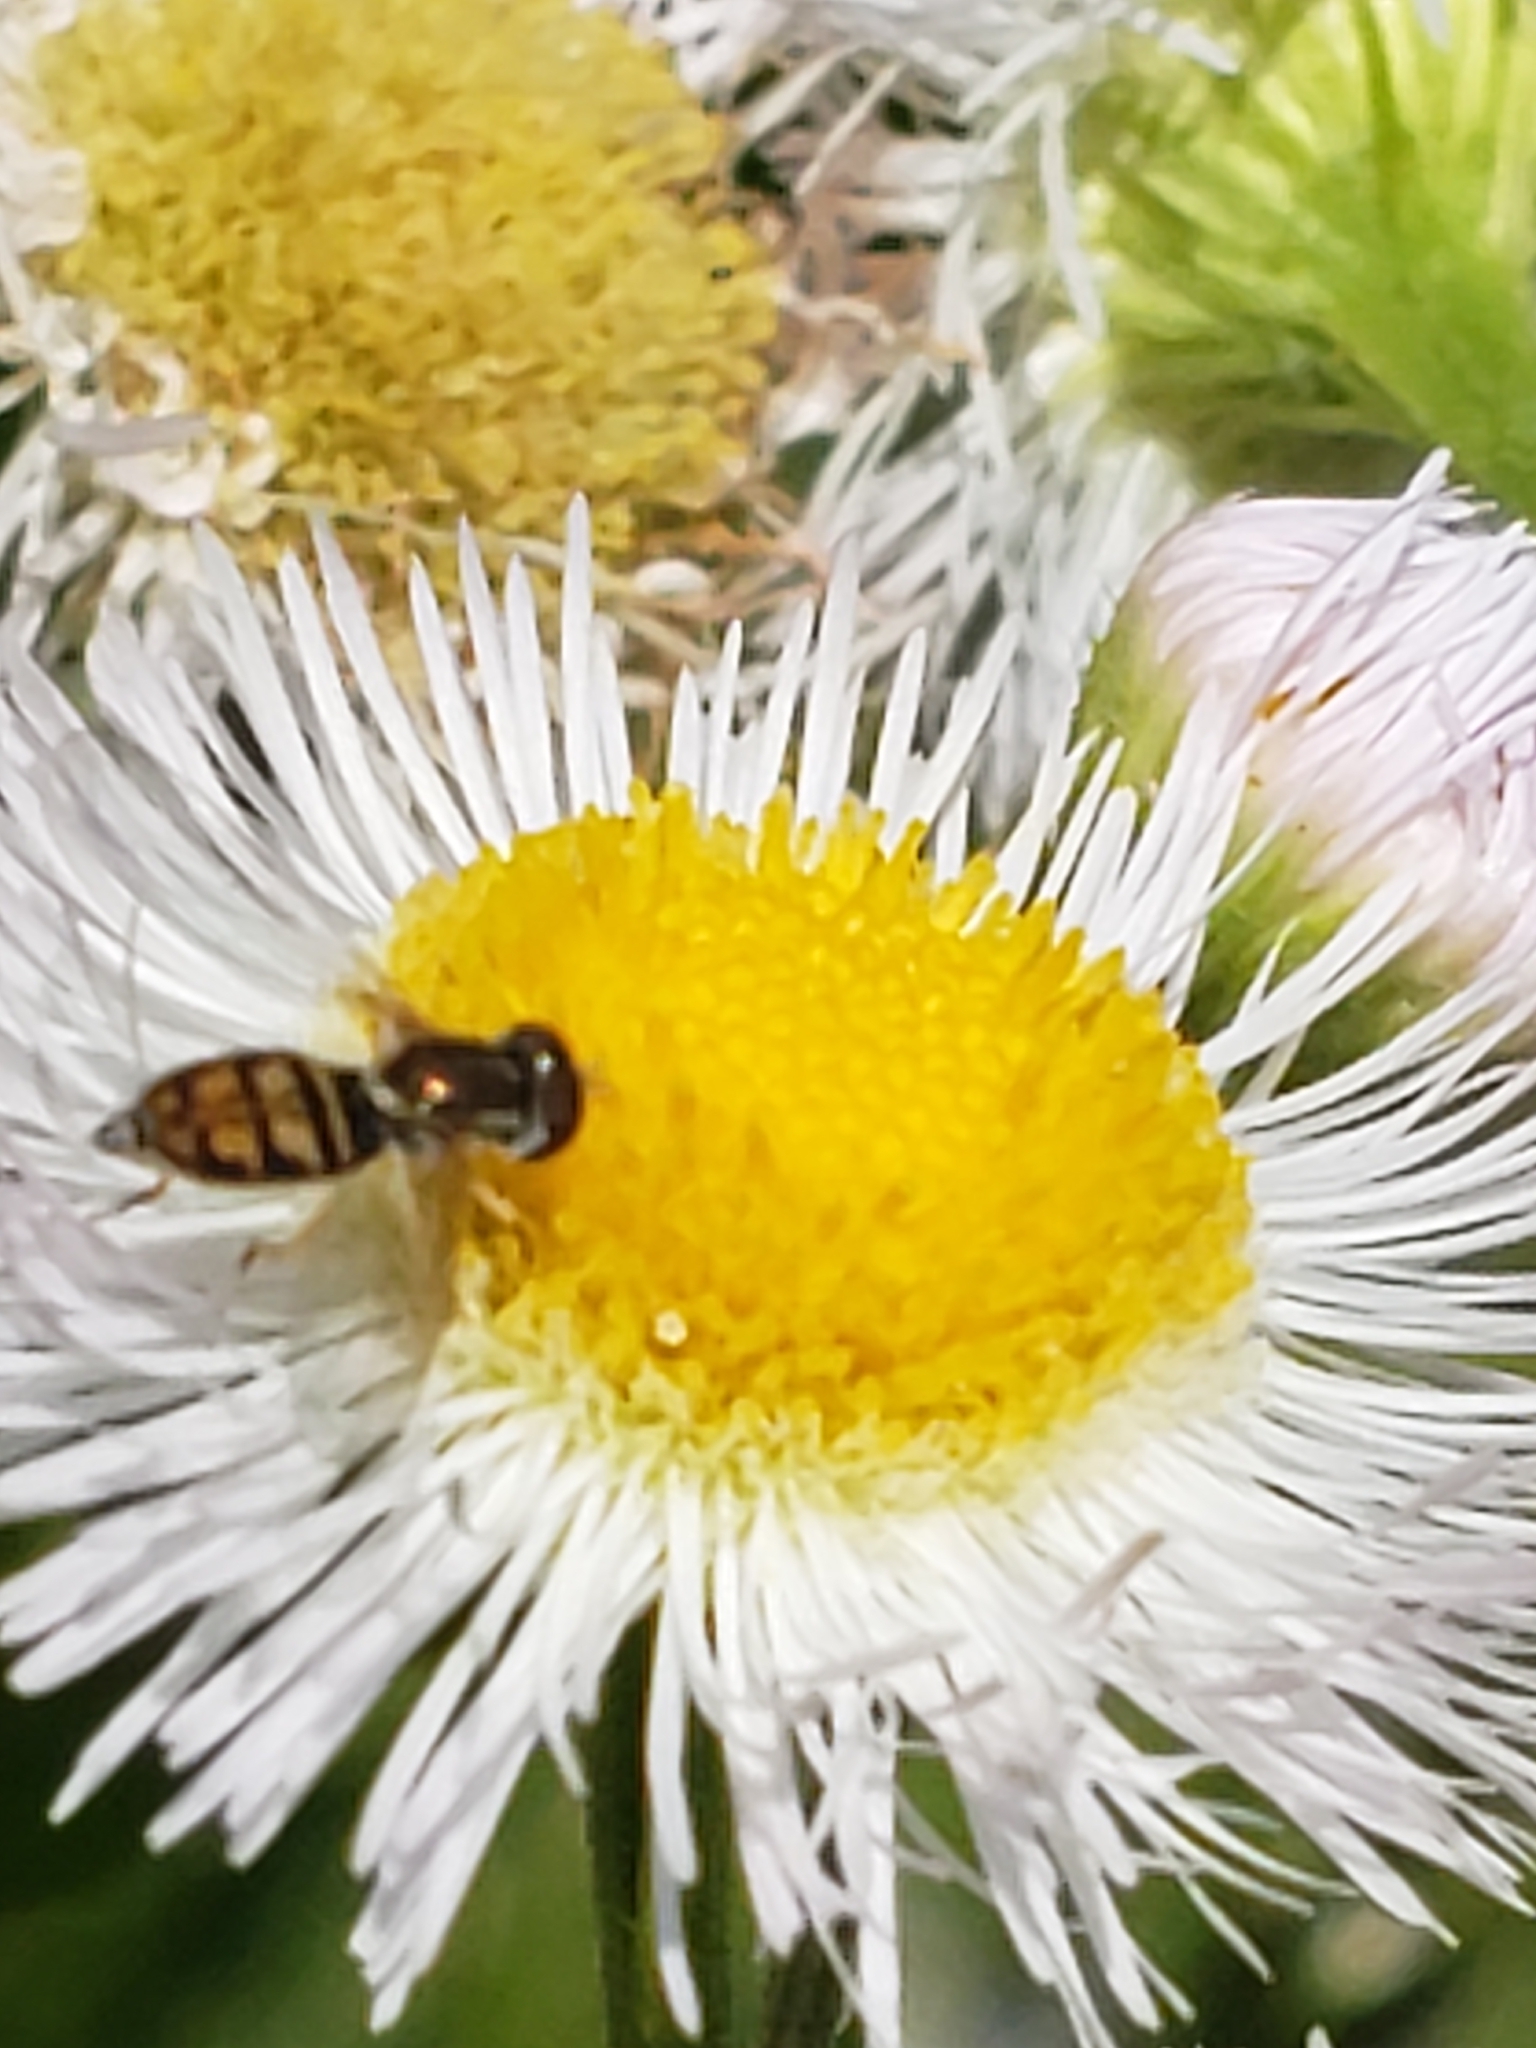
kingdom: Animalia
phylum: Arthropoda
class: Insecta
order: Diptera
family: Syrphidae
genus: Toxomerus
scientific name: Toxomerus marginatus
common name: Syrphid fly
